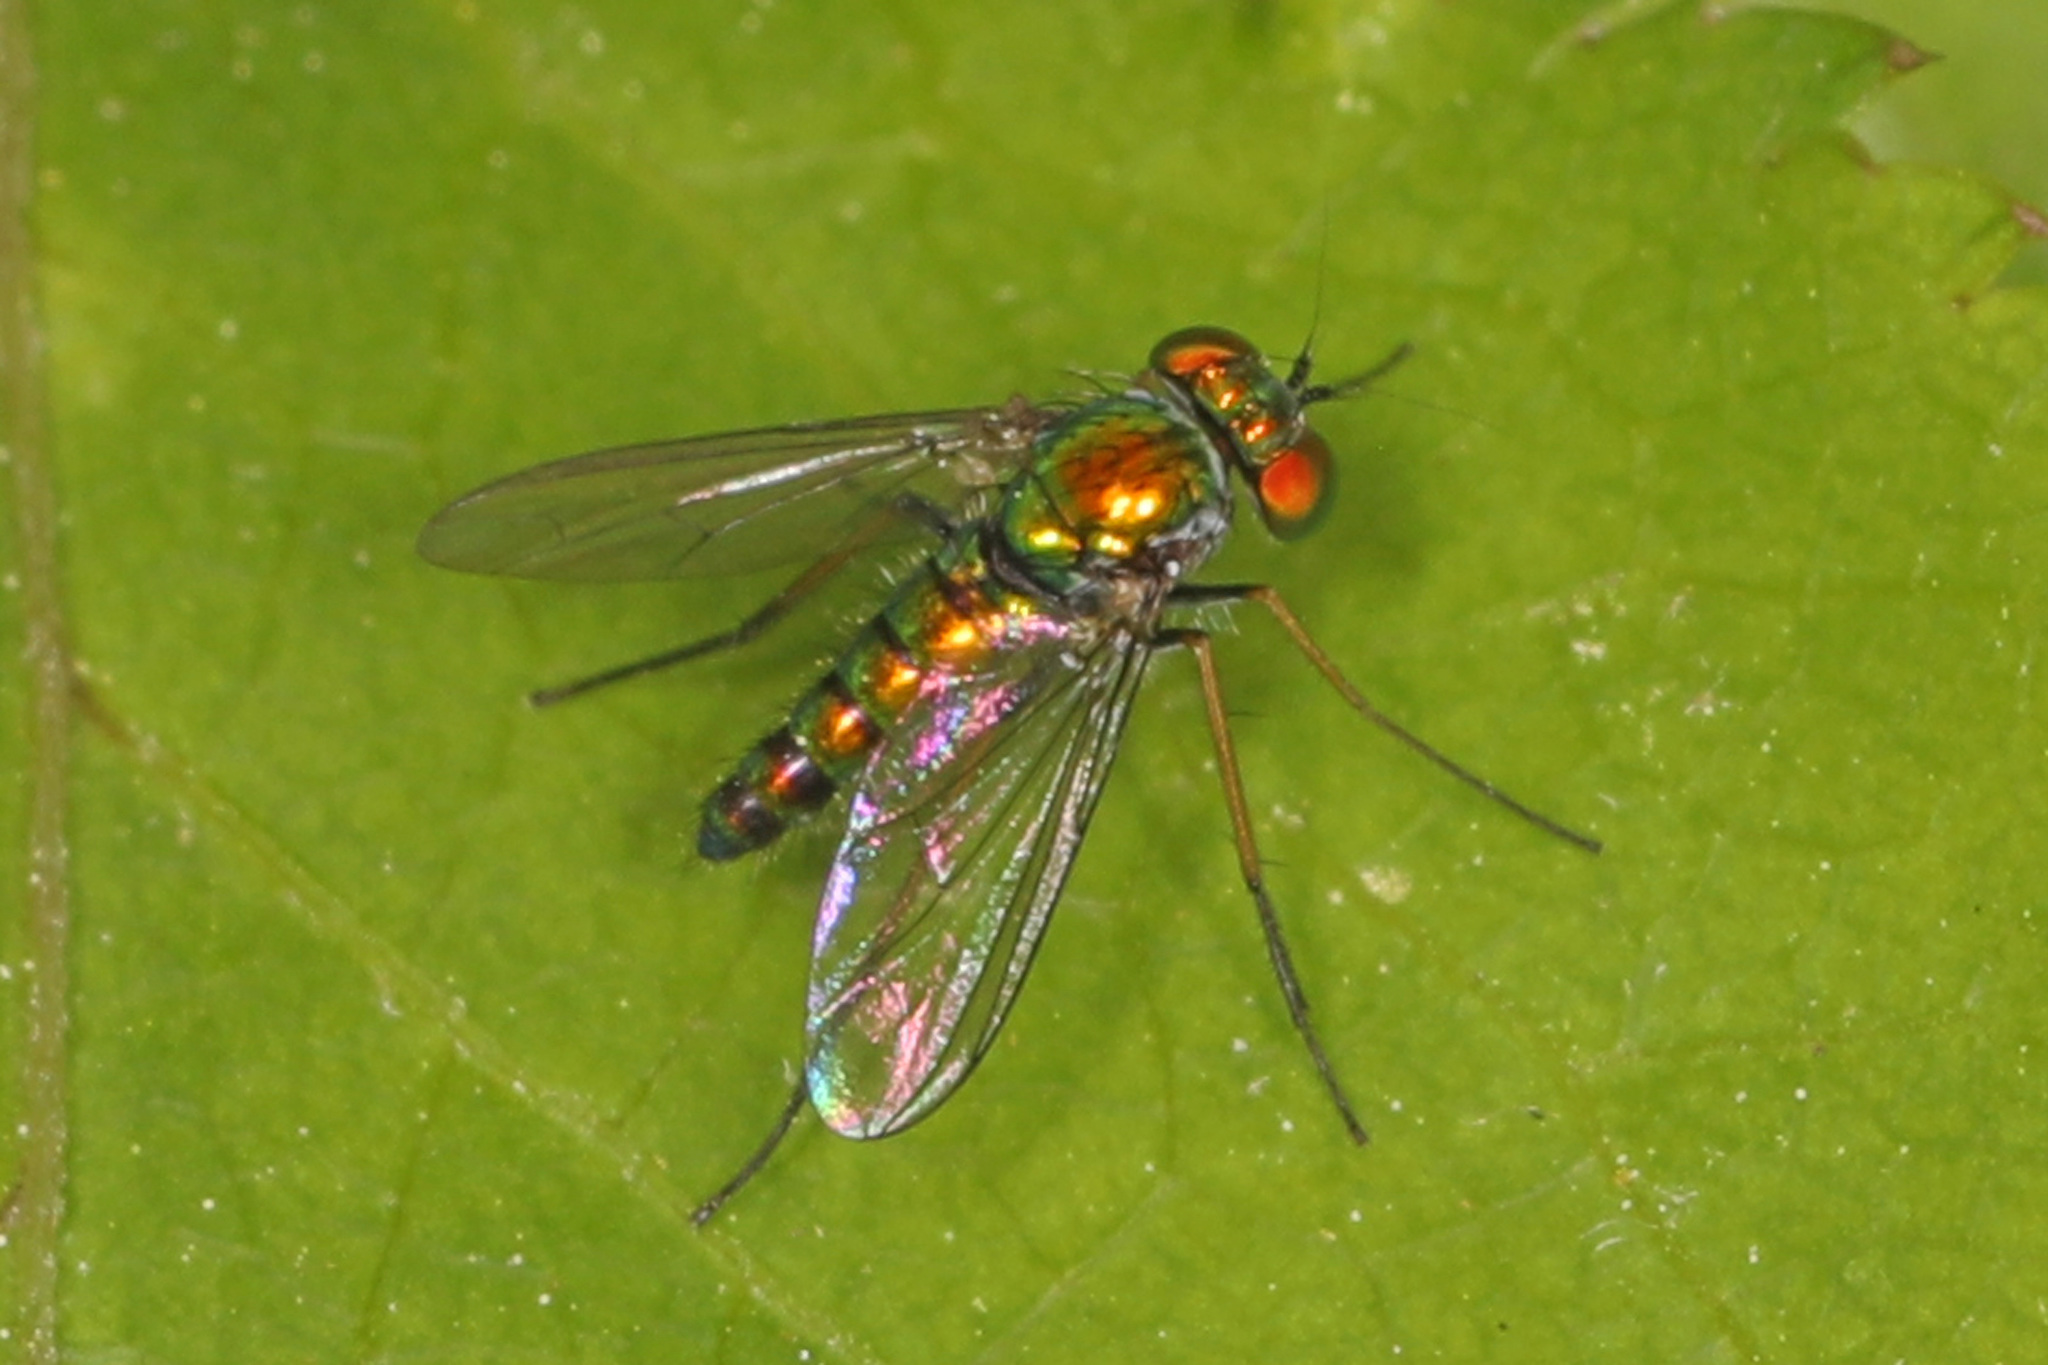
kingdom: Animalia
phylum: Arthropoda
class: Insecta
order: Diptera
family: Dolichopodidae
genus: Condylostylus
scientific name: Condylostylus connectans
